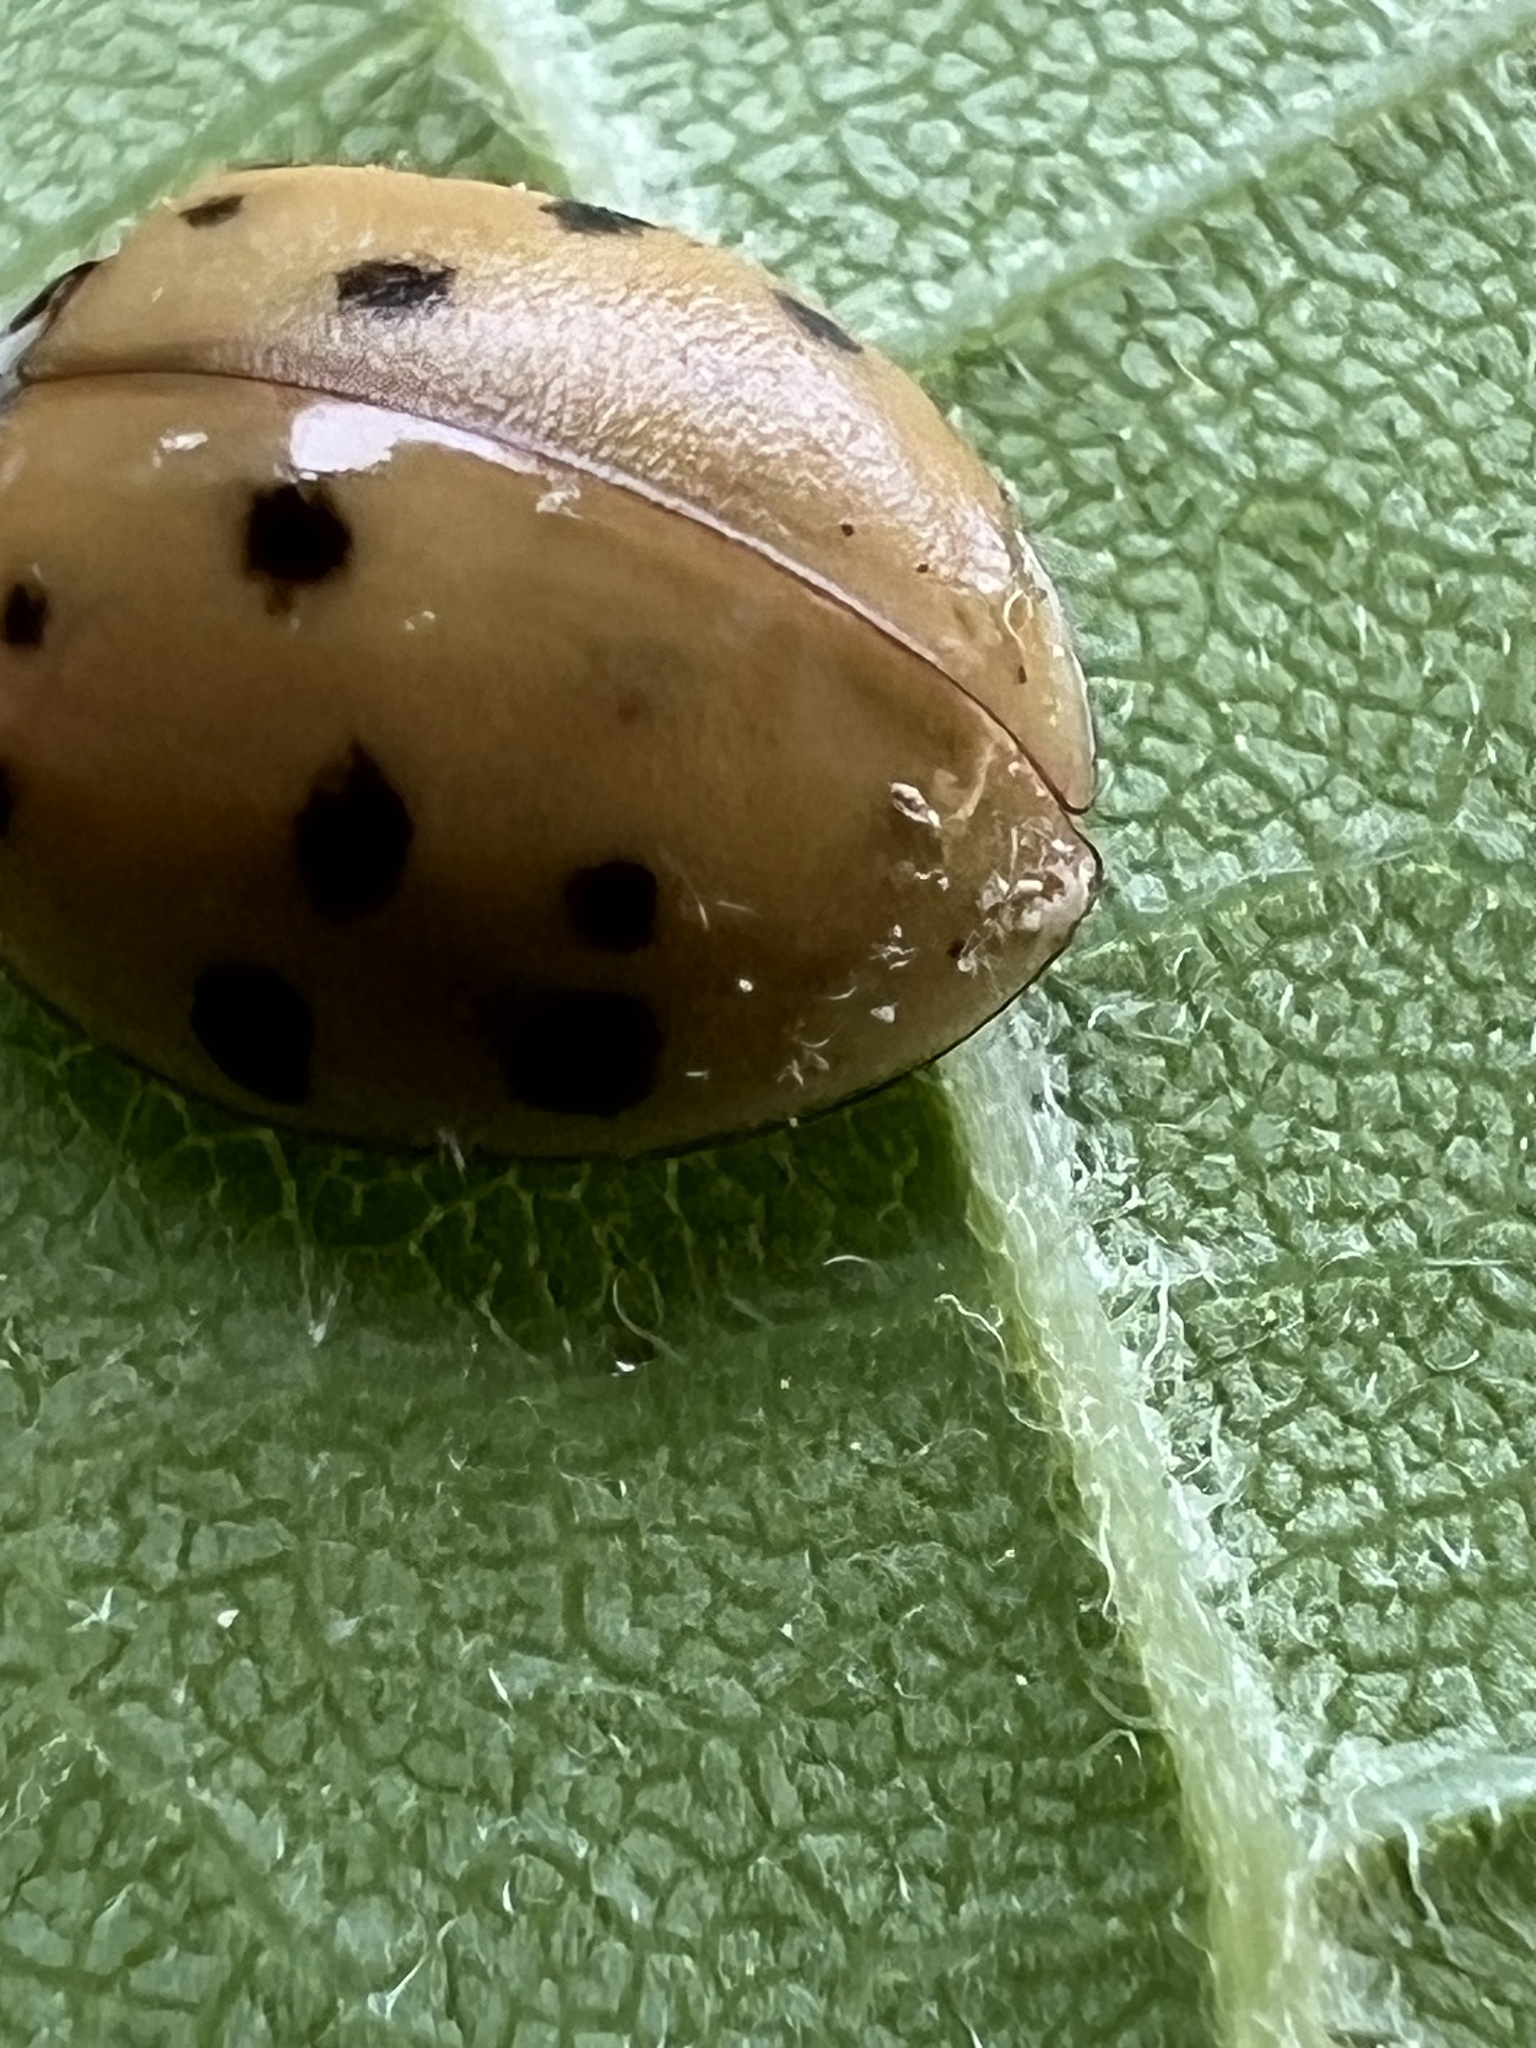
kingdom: Fungi
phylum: Ascomycota
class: Laboulbeniomycetes
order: Laboulbeniales
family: Laboulbeniaceae
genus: Hesperomyces
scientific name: Hesperomyces harmoniae
